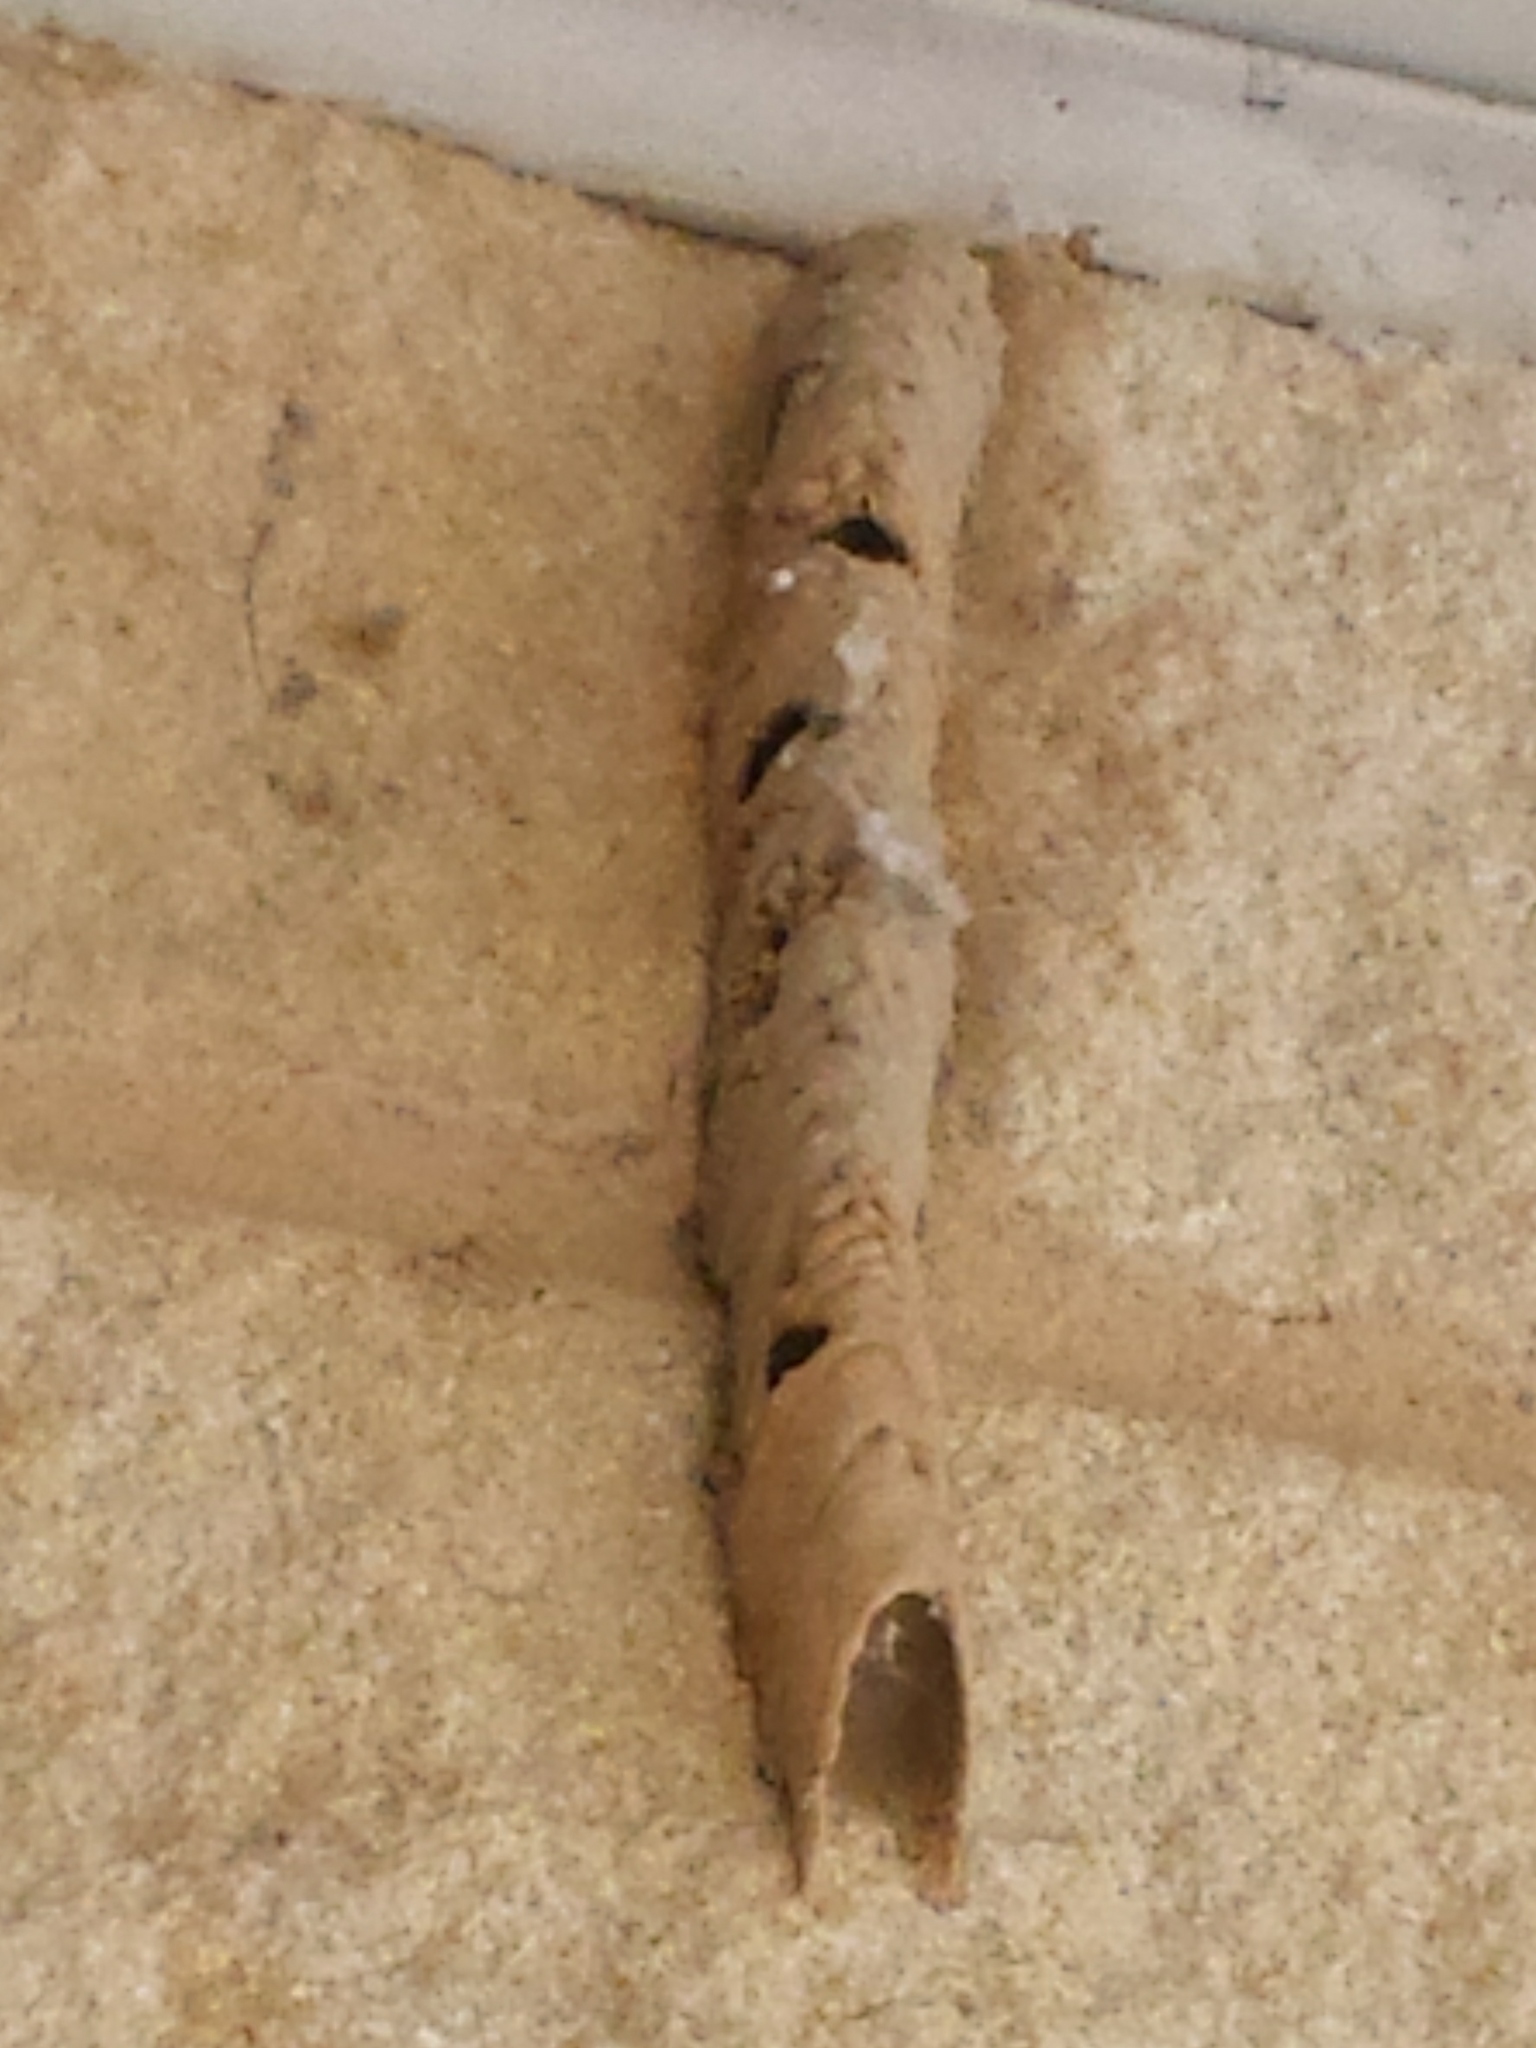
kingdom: Animalia
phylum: Arthropoda
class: Insecta
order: Hymenoptera
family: Crabronidae
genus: Trypoxylon
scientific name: Trypoxylon politum
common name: Organ-pipe mud-dauber wasp
